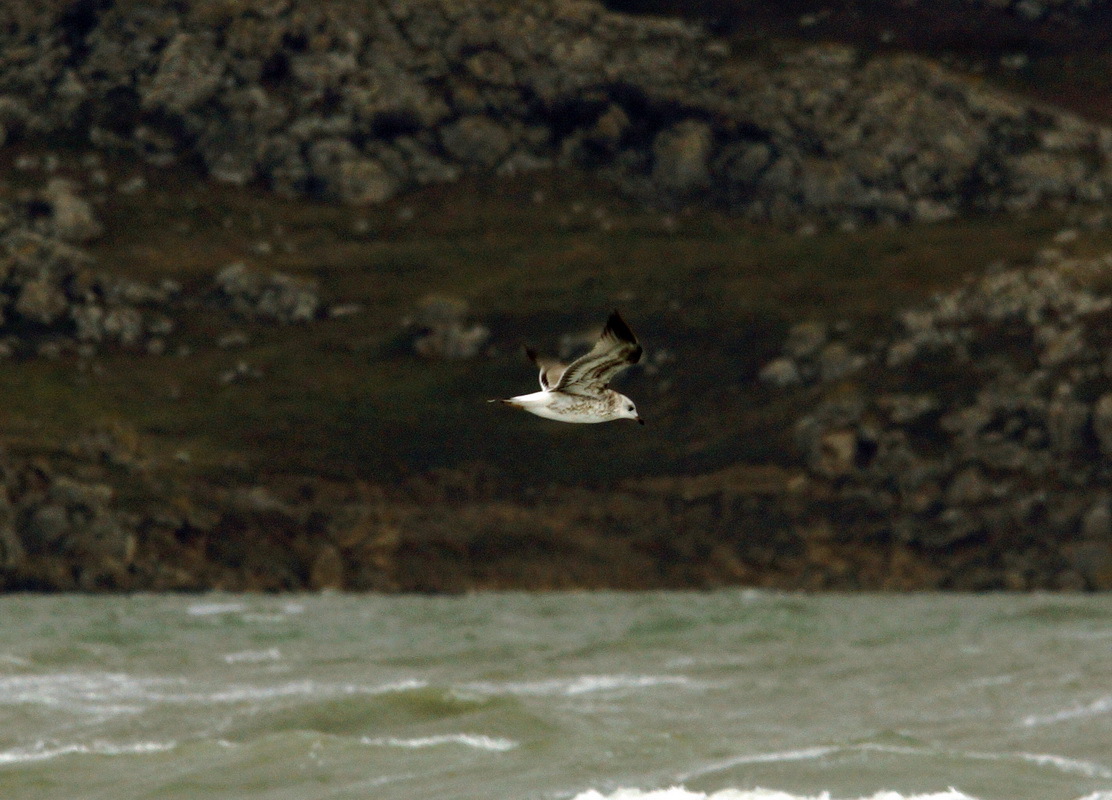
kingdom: Animalia
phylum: Chordata
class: Aves
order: Charadriiformes
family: Laridae
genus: Larus
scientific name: Larus canus
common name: Mew gull
